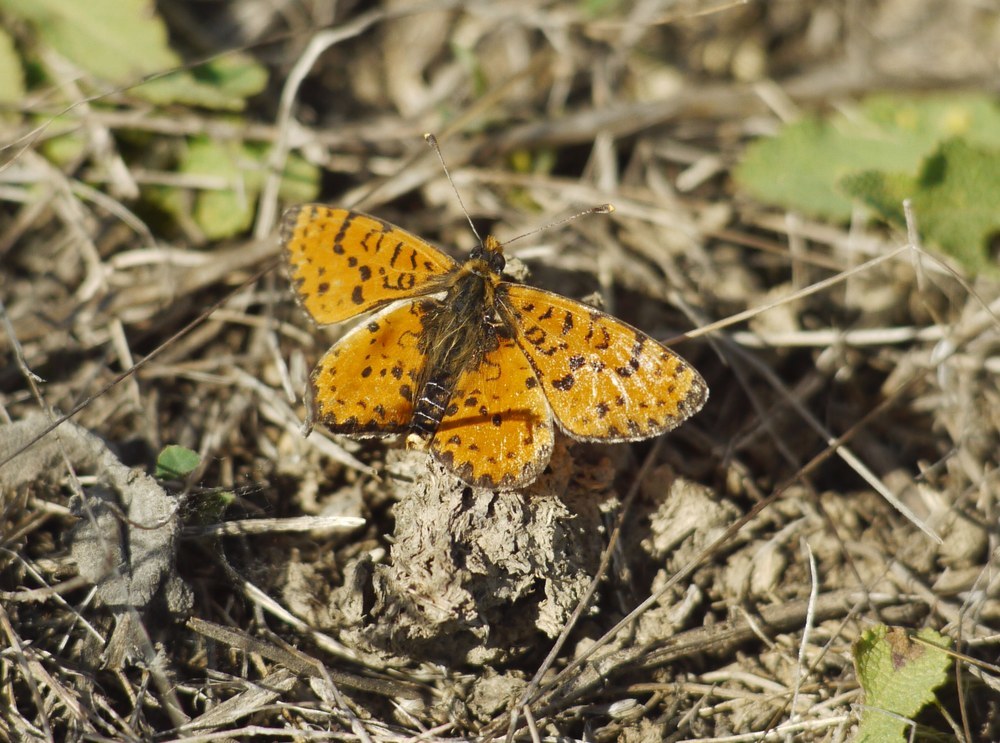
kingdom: Animalia
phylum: Arthropoda
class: Insecta
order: Lepidoptera
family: Nymphalidae
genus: Melitaea
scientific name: Melitaea didyma
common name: Spotted fritillary
